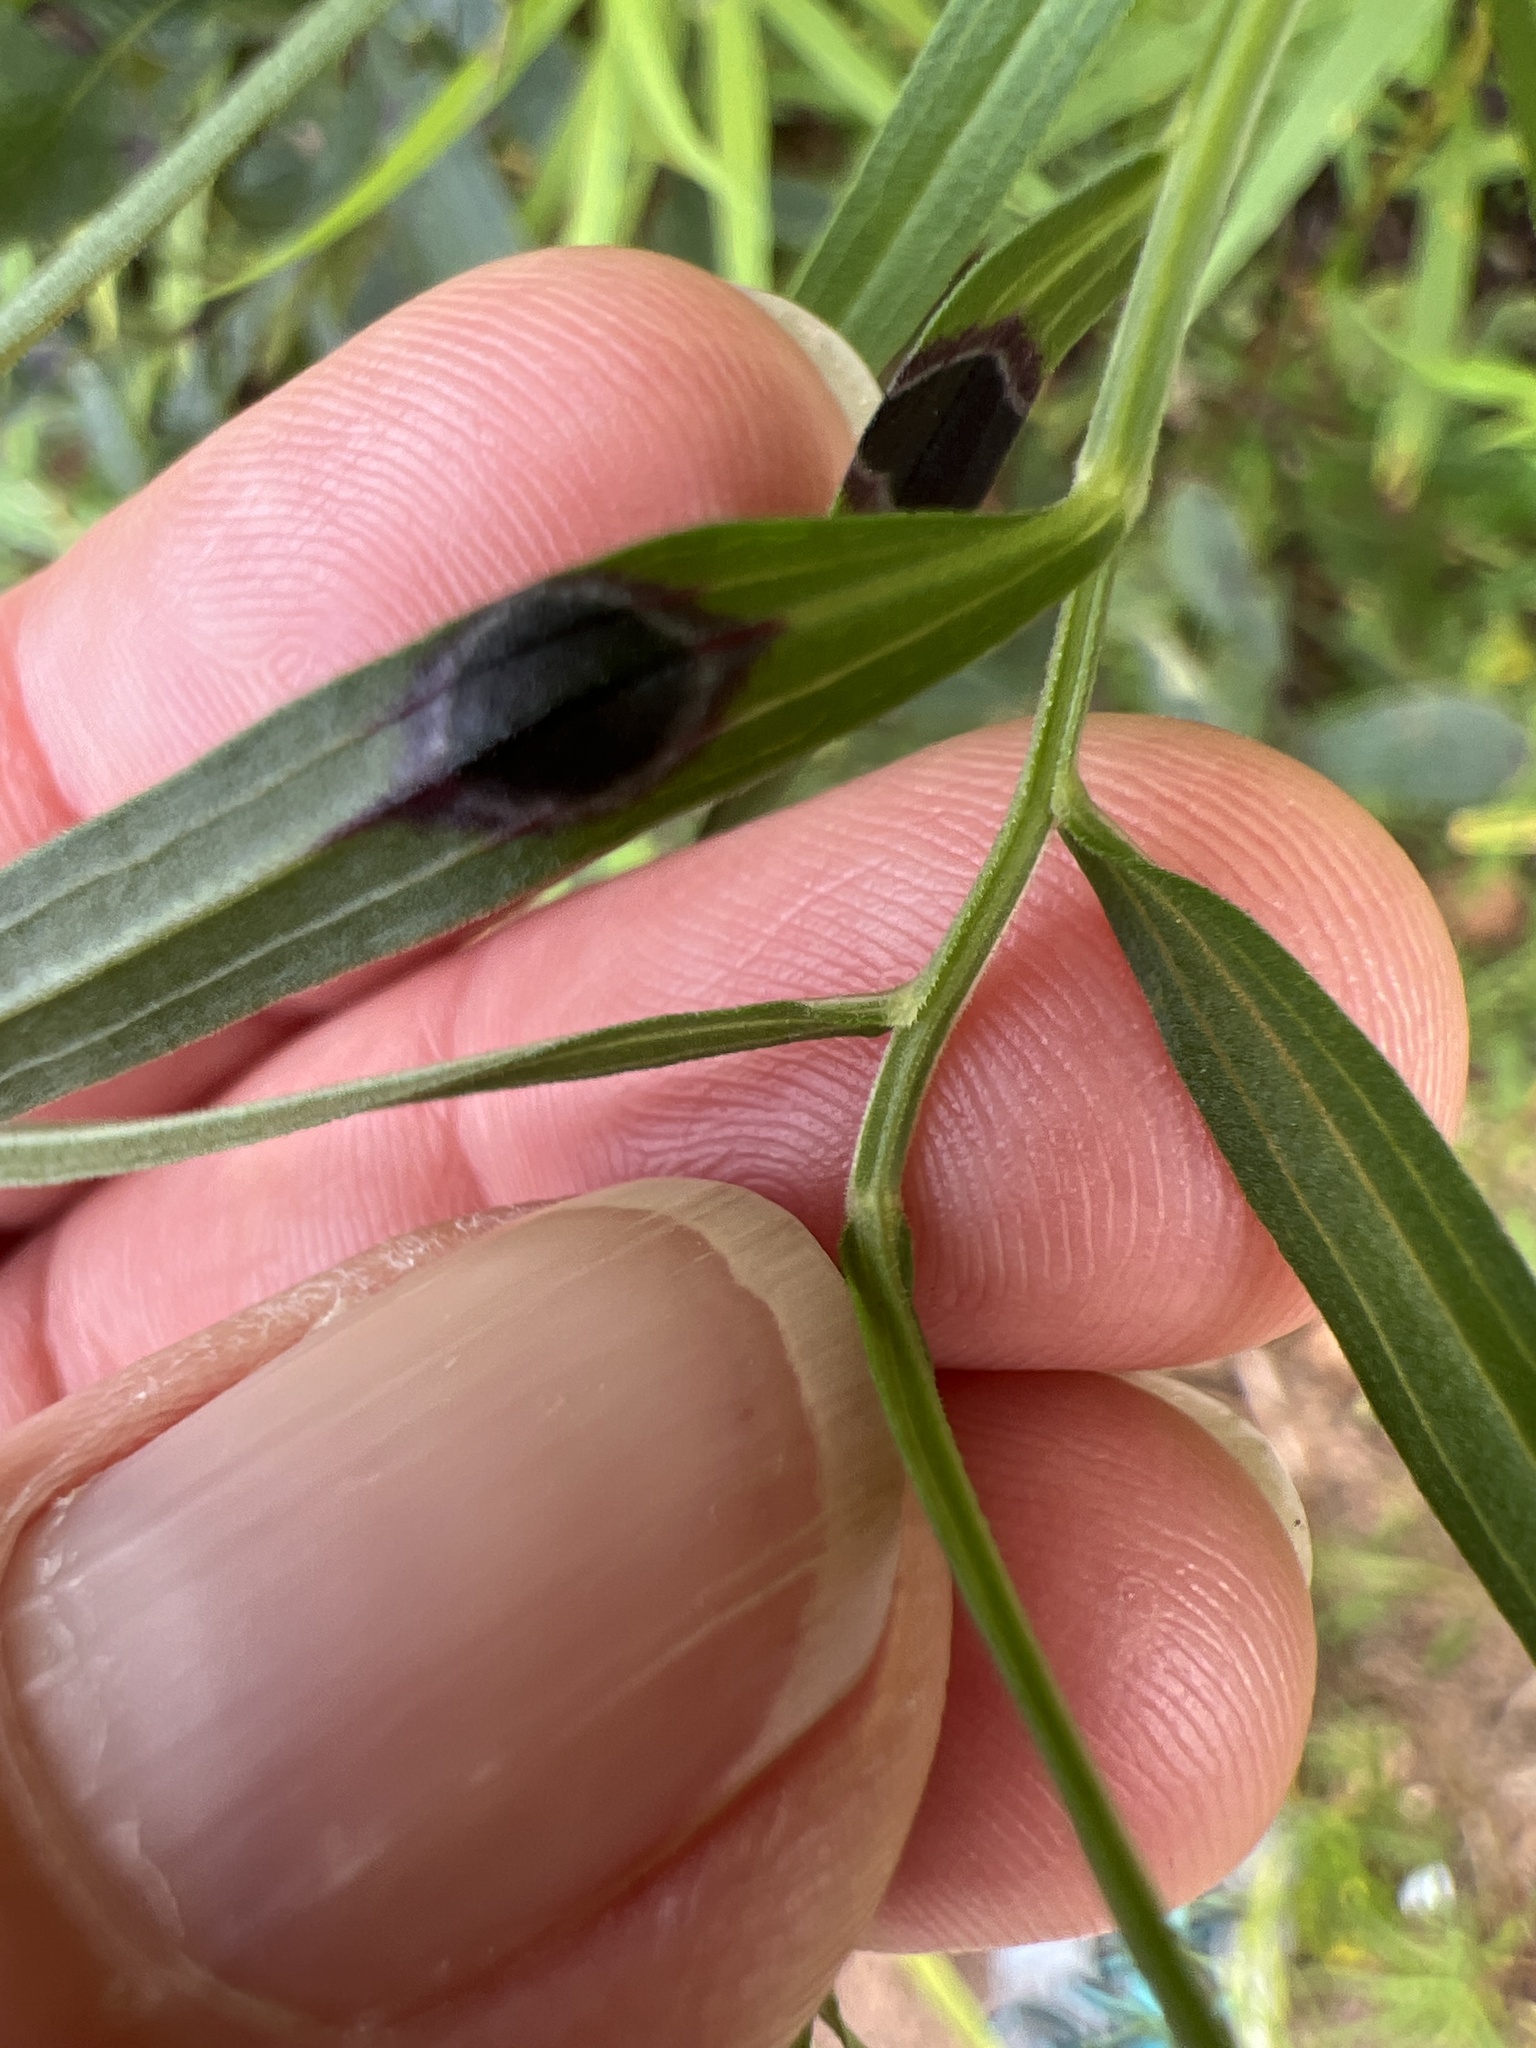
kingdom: Animalia
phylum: Arthropoda
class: Insecta
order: Diptera
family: Cecidomyiidae
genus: Asteromyia
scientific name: Asteromyia euthamiae
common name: Euthamia leaf gall midge
